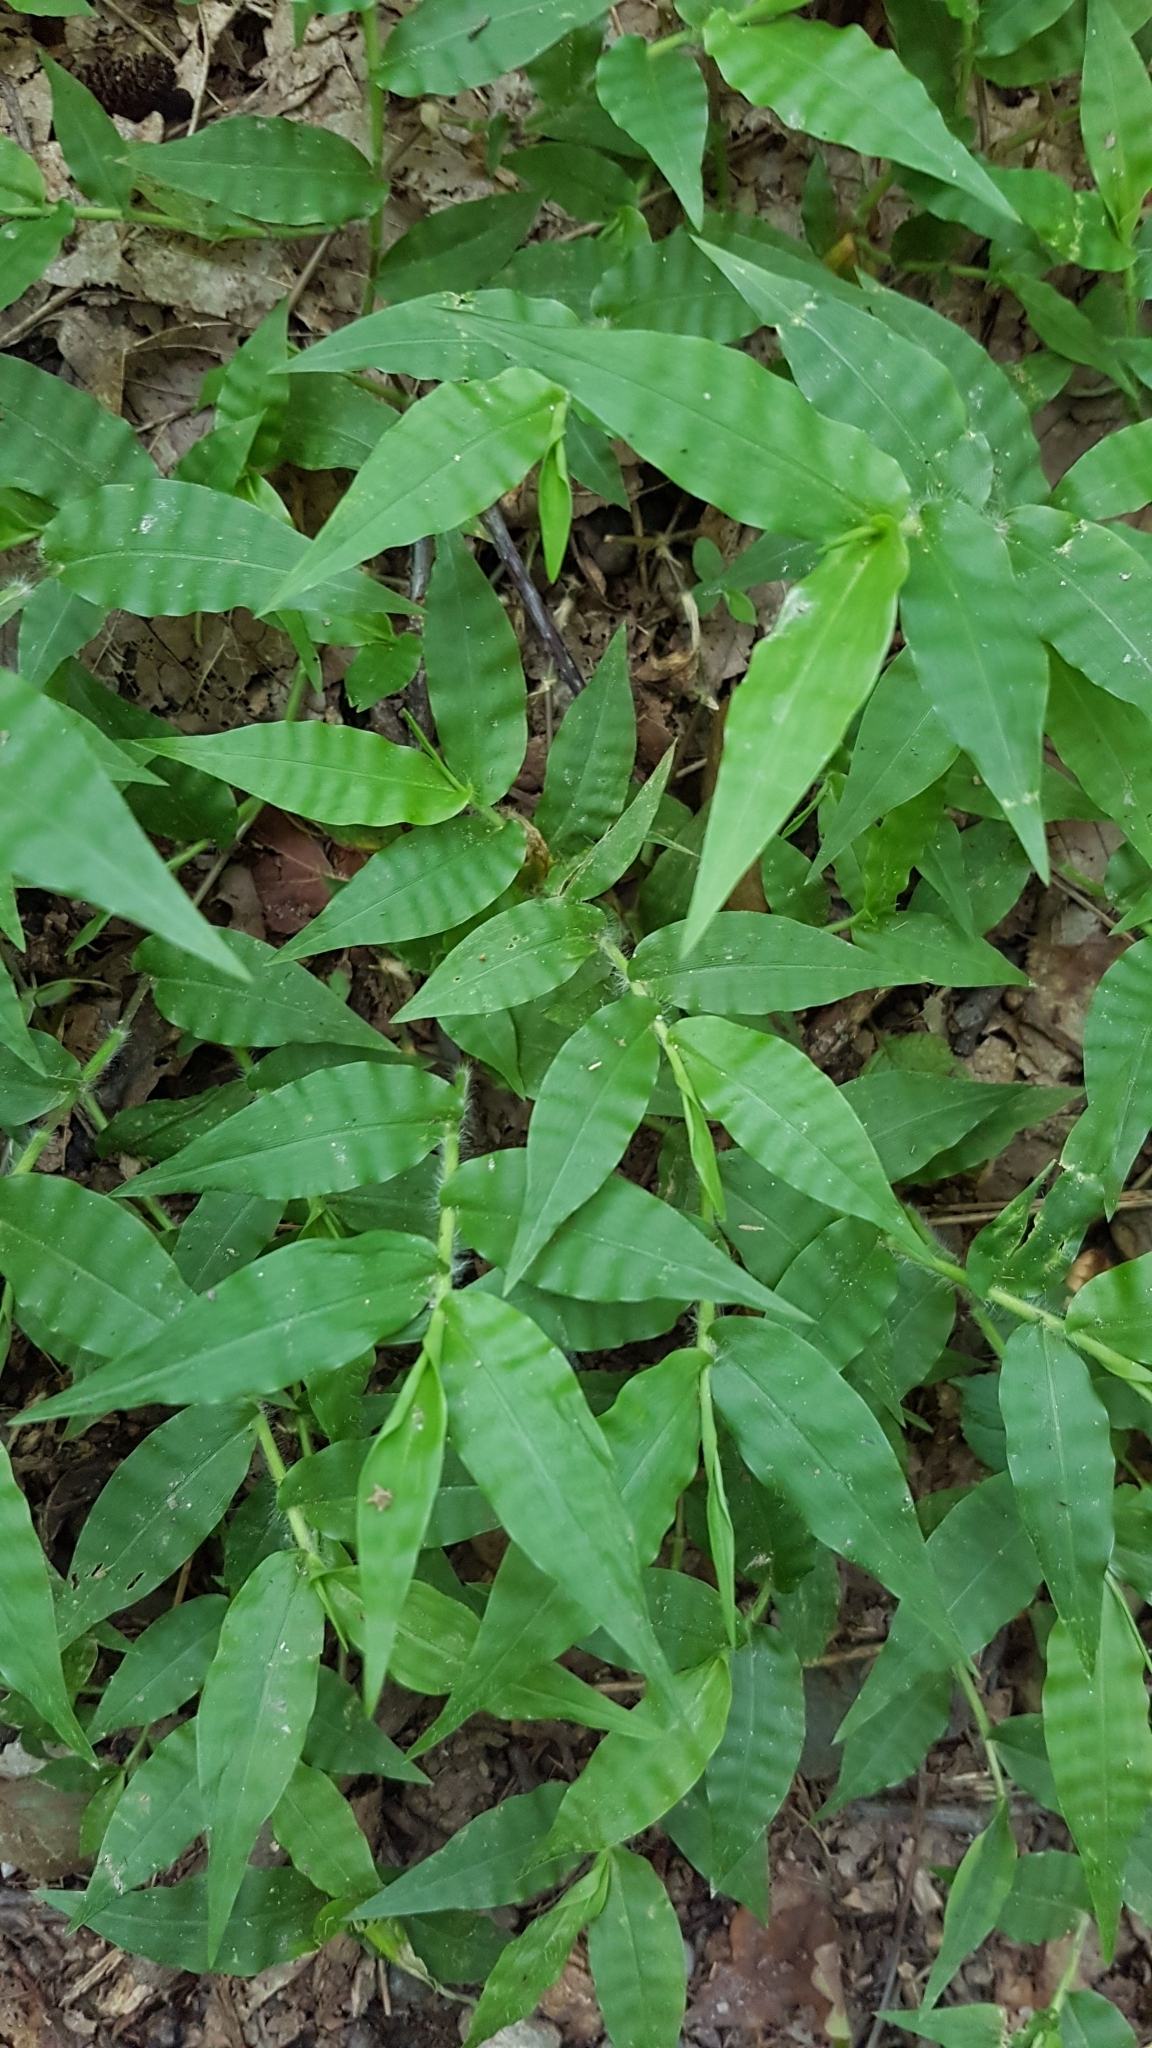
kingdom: Plantae
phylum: Tracheophyta
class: Liliopsida
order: Poales
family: Poaceae
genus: Oplismenus
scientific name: Oplismenus undulatifolius
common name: Wavyleaf basketgrass
